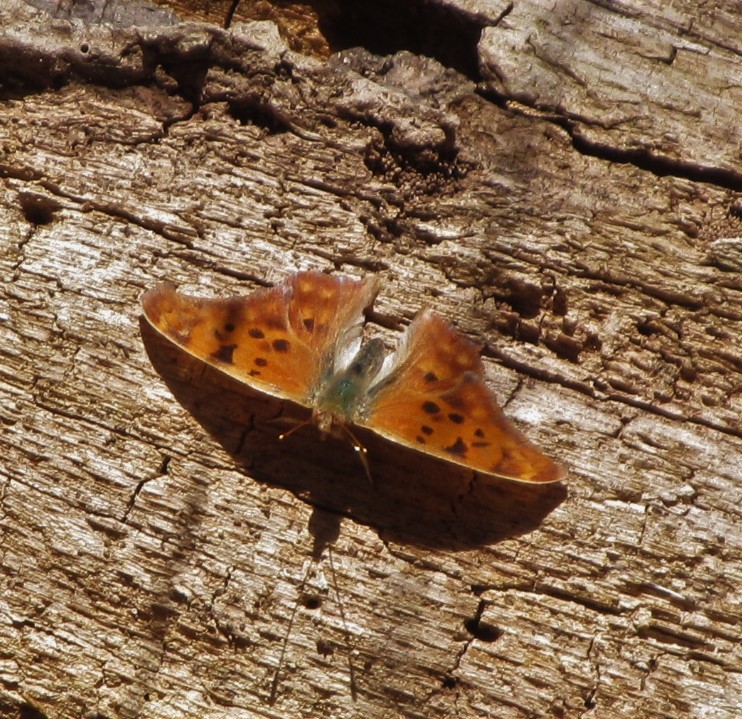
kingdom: Animalia
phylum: Arthropoda
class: Insecta
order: Lepidoptera
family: Nymphalidae
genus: Polygonia
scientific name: Polygonia interrogationis
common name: Question mark
